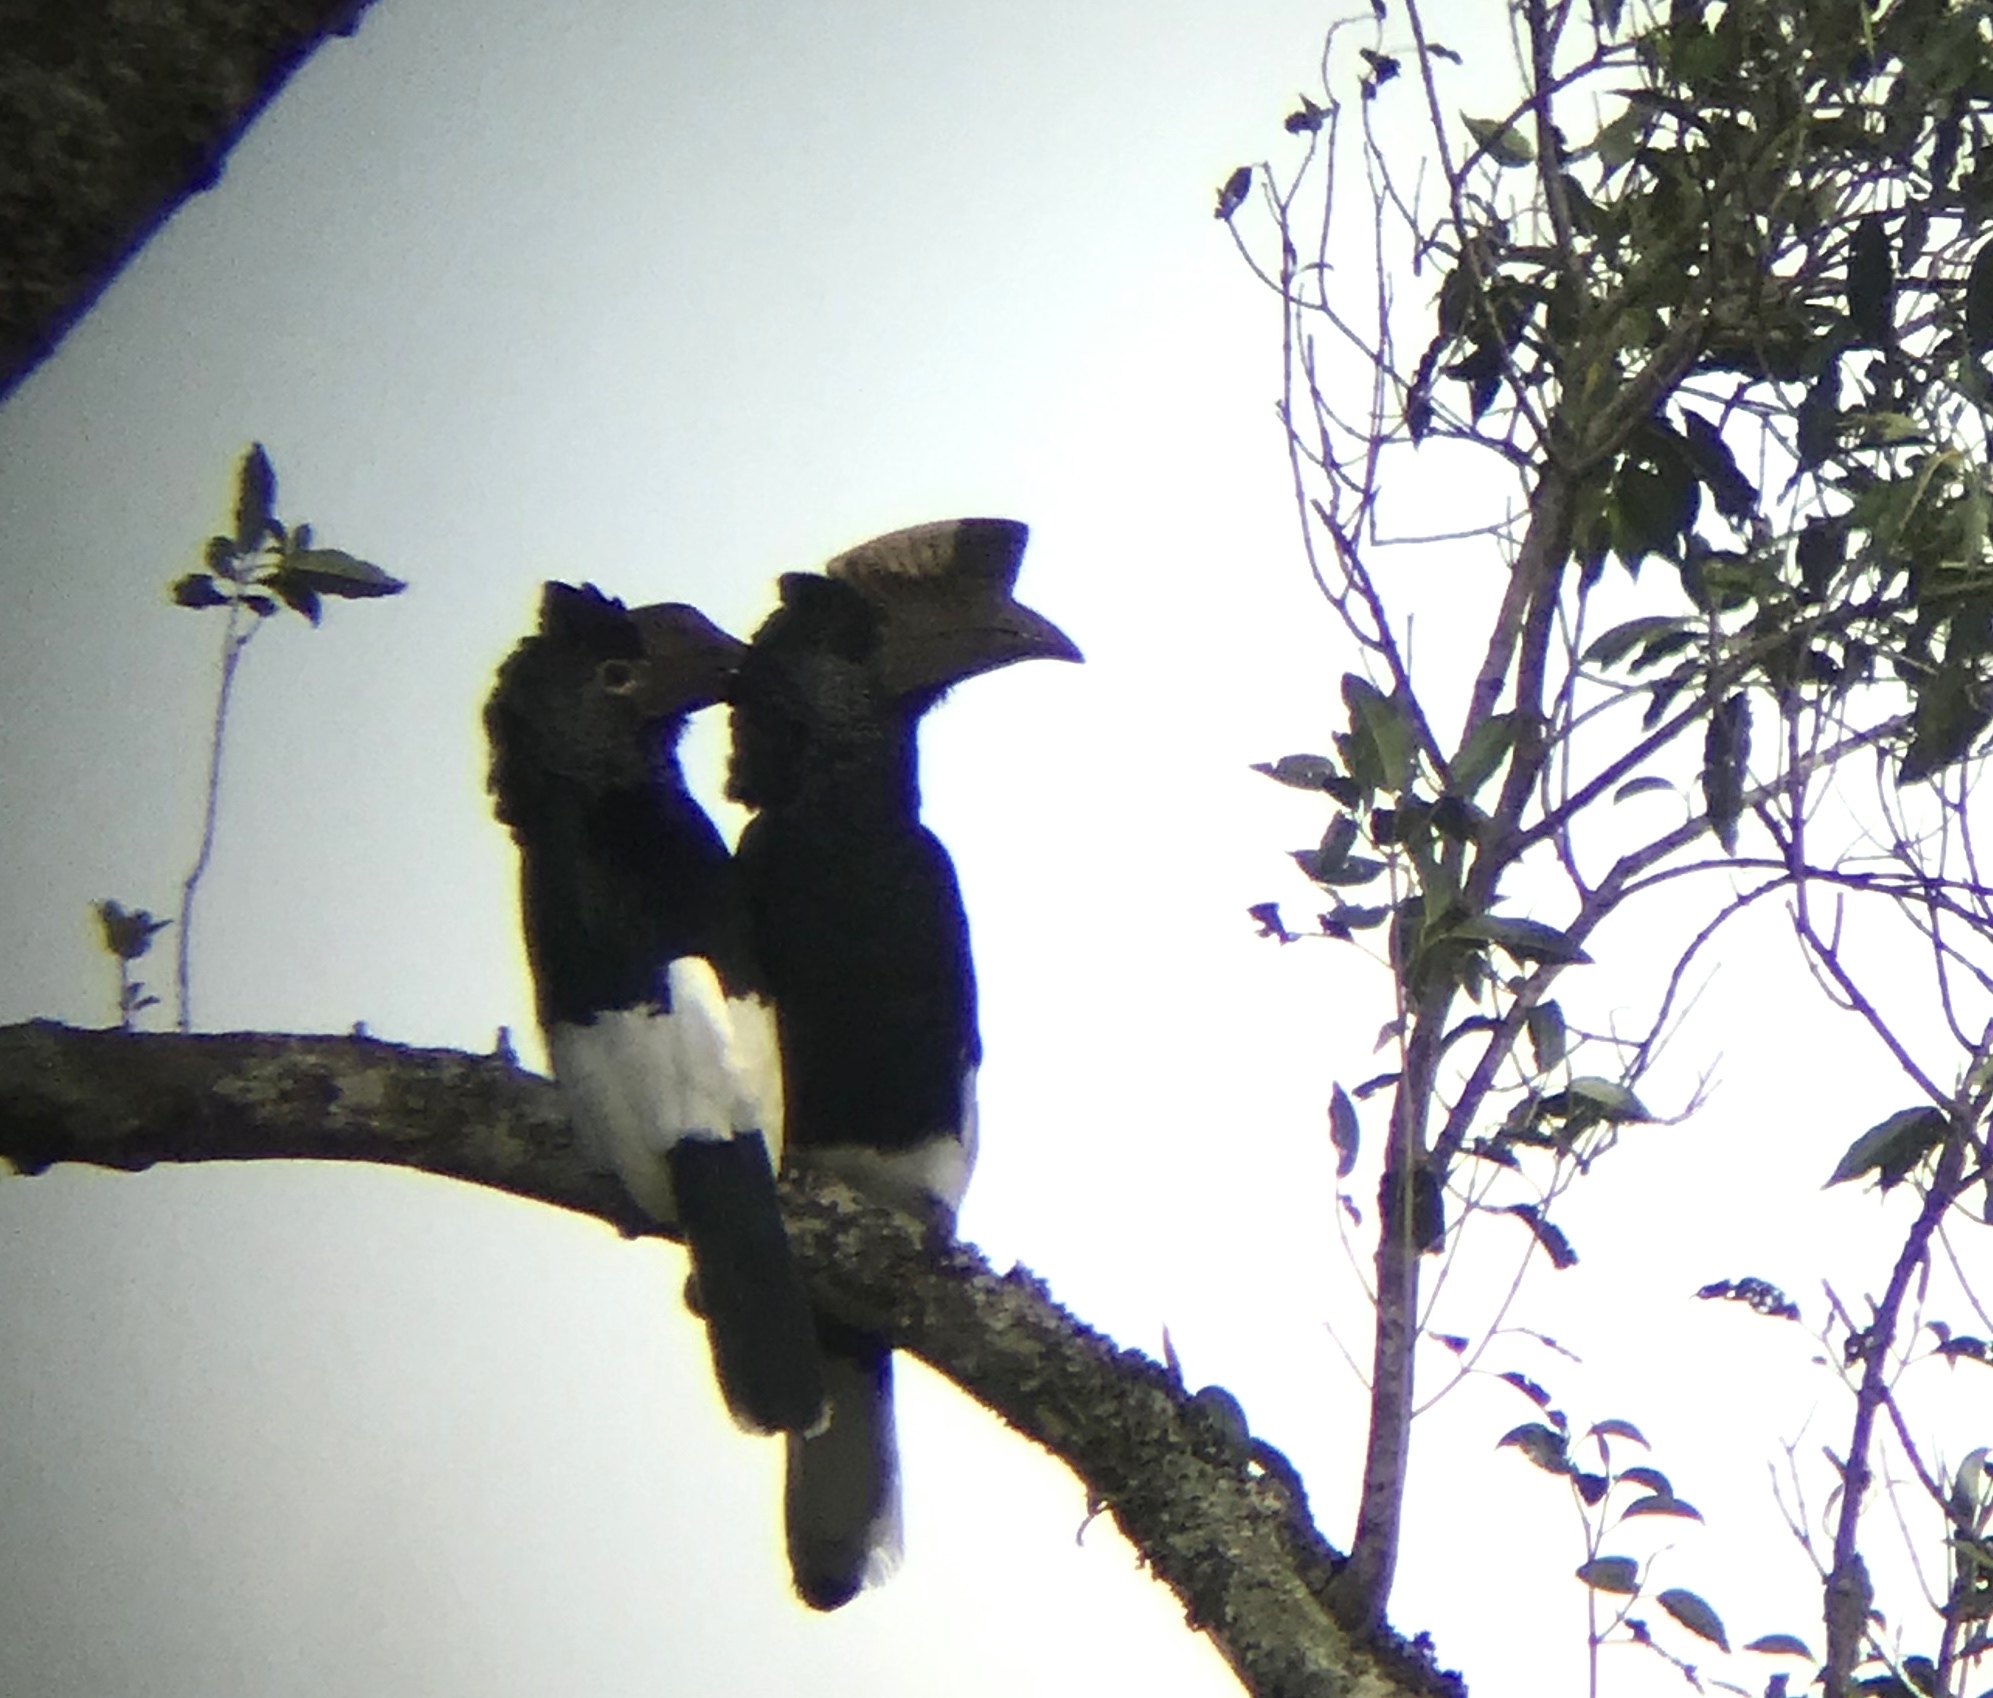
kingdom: Animalia
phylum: Chordata
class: Aves
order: Bucerotiformes
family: Bucerotidae
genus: Bycanistes
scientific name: Bycanistes subcylindricus
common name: Black-and-white-casqued hornbill
